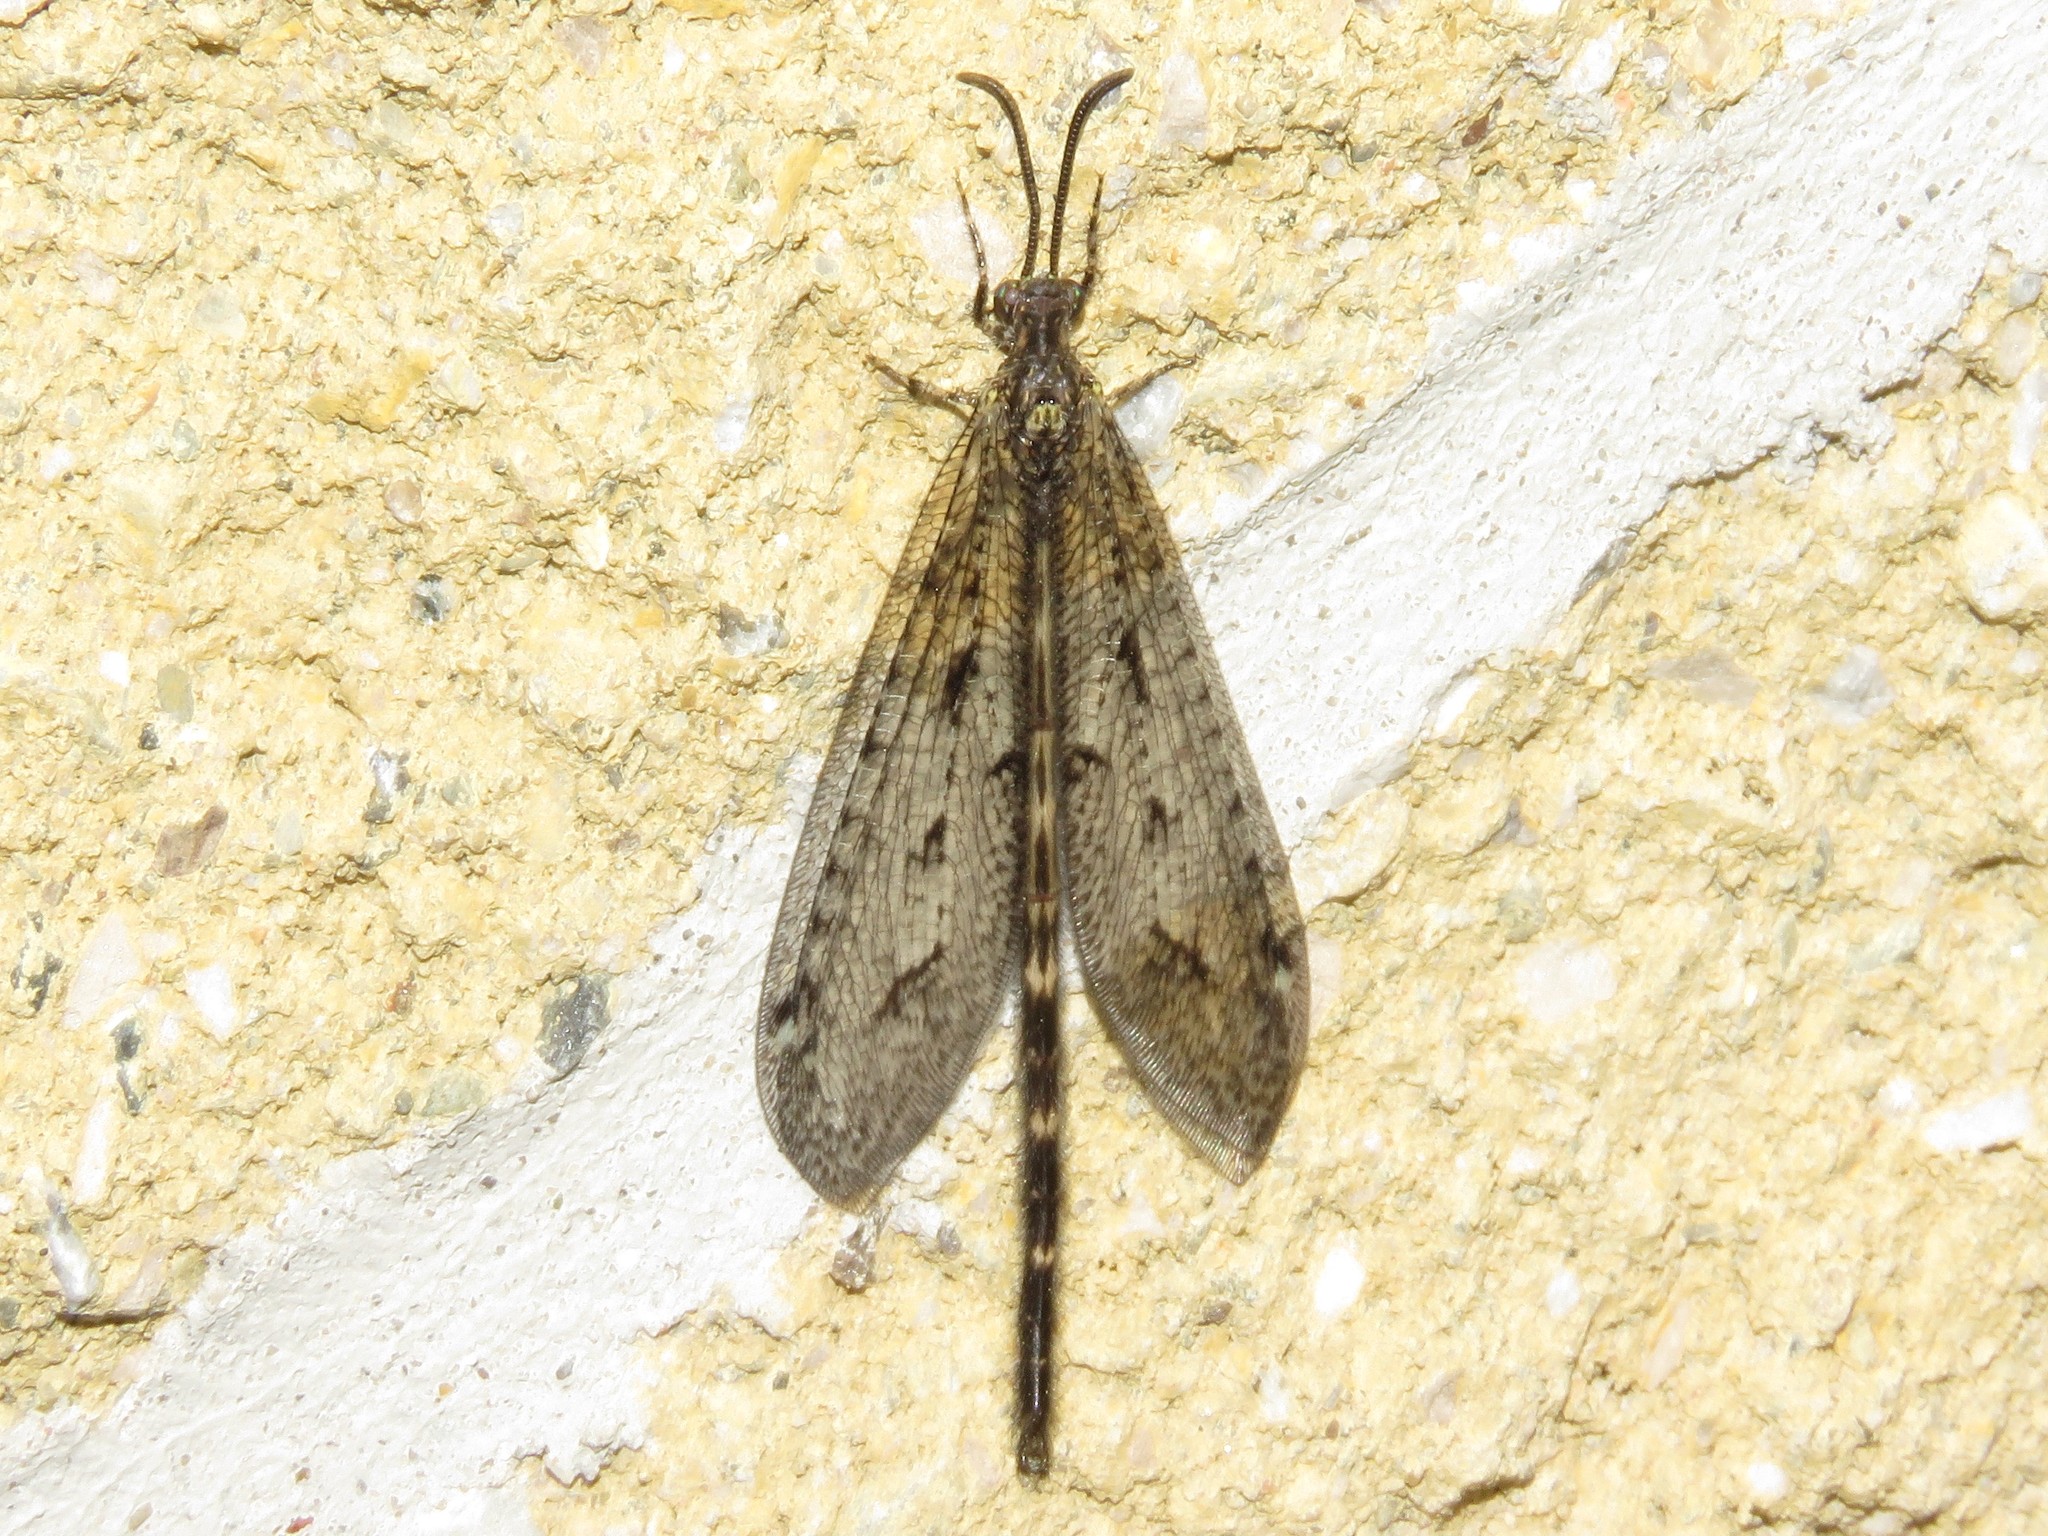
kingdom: Animalia
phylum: Arthropoda
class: Insecta
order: Neuroptera
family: Myrmeleontidae
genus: Brachynemurus
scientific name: Brachynemurus nebulosus
